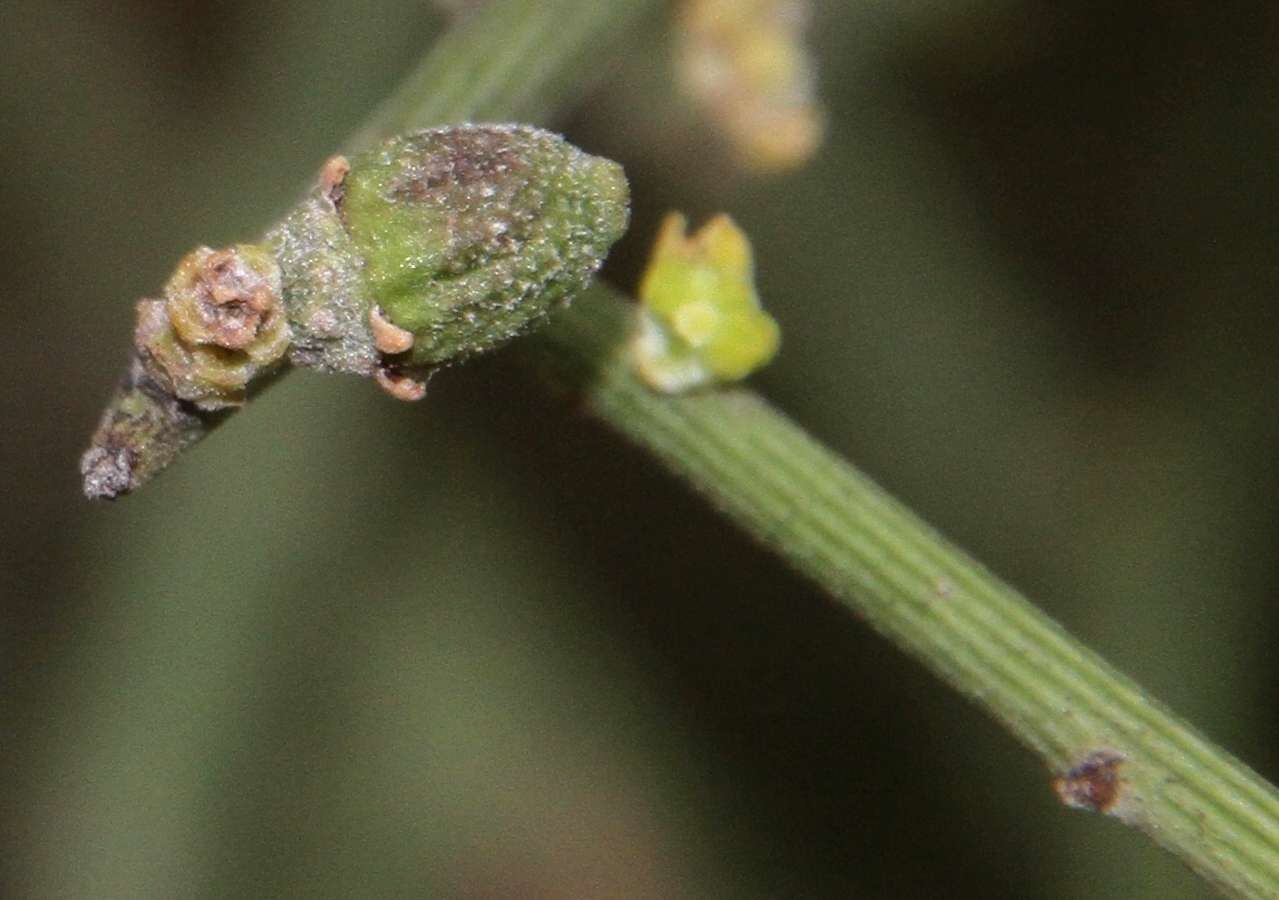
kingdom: Plantae
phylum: Tracheophyta
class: Magnoliopsida
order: Santalales
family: Santalaceae
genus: Exocarpos
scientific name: Exocarpos aphyllus
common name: Leafless ballart
